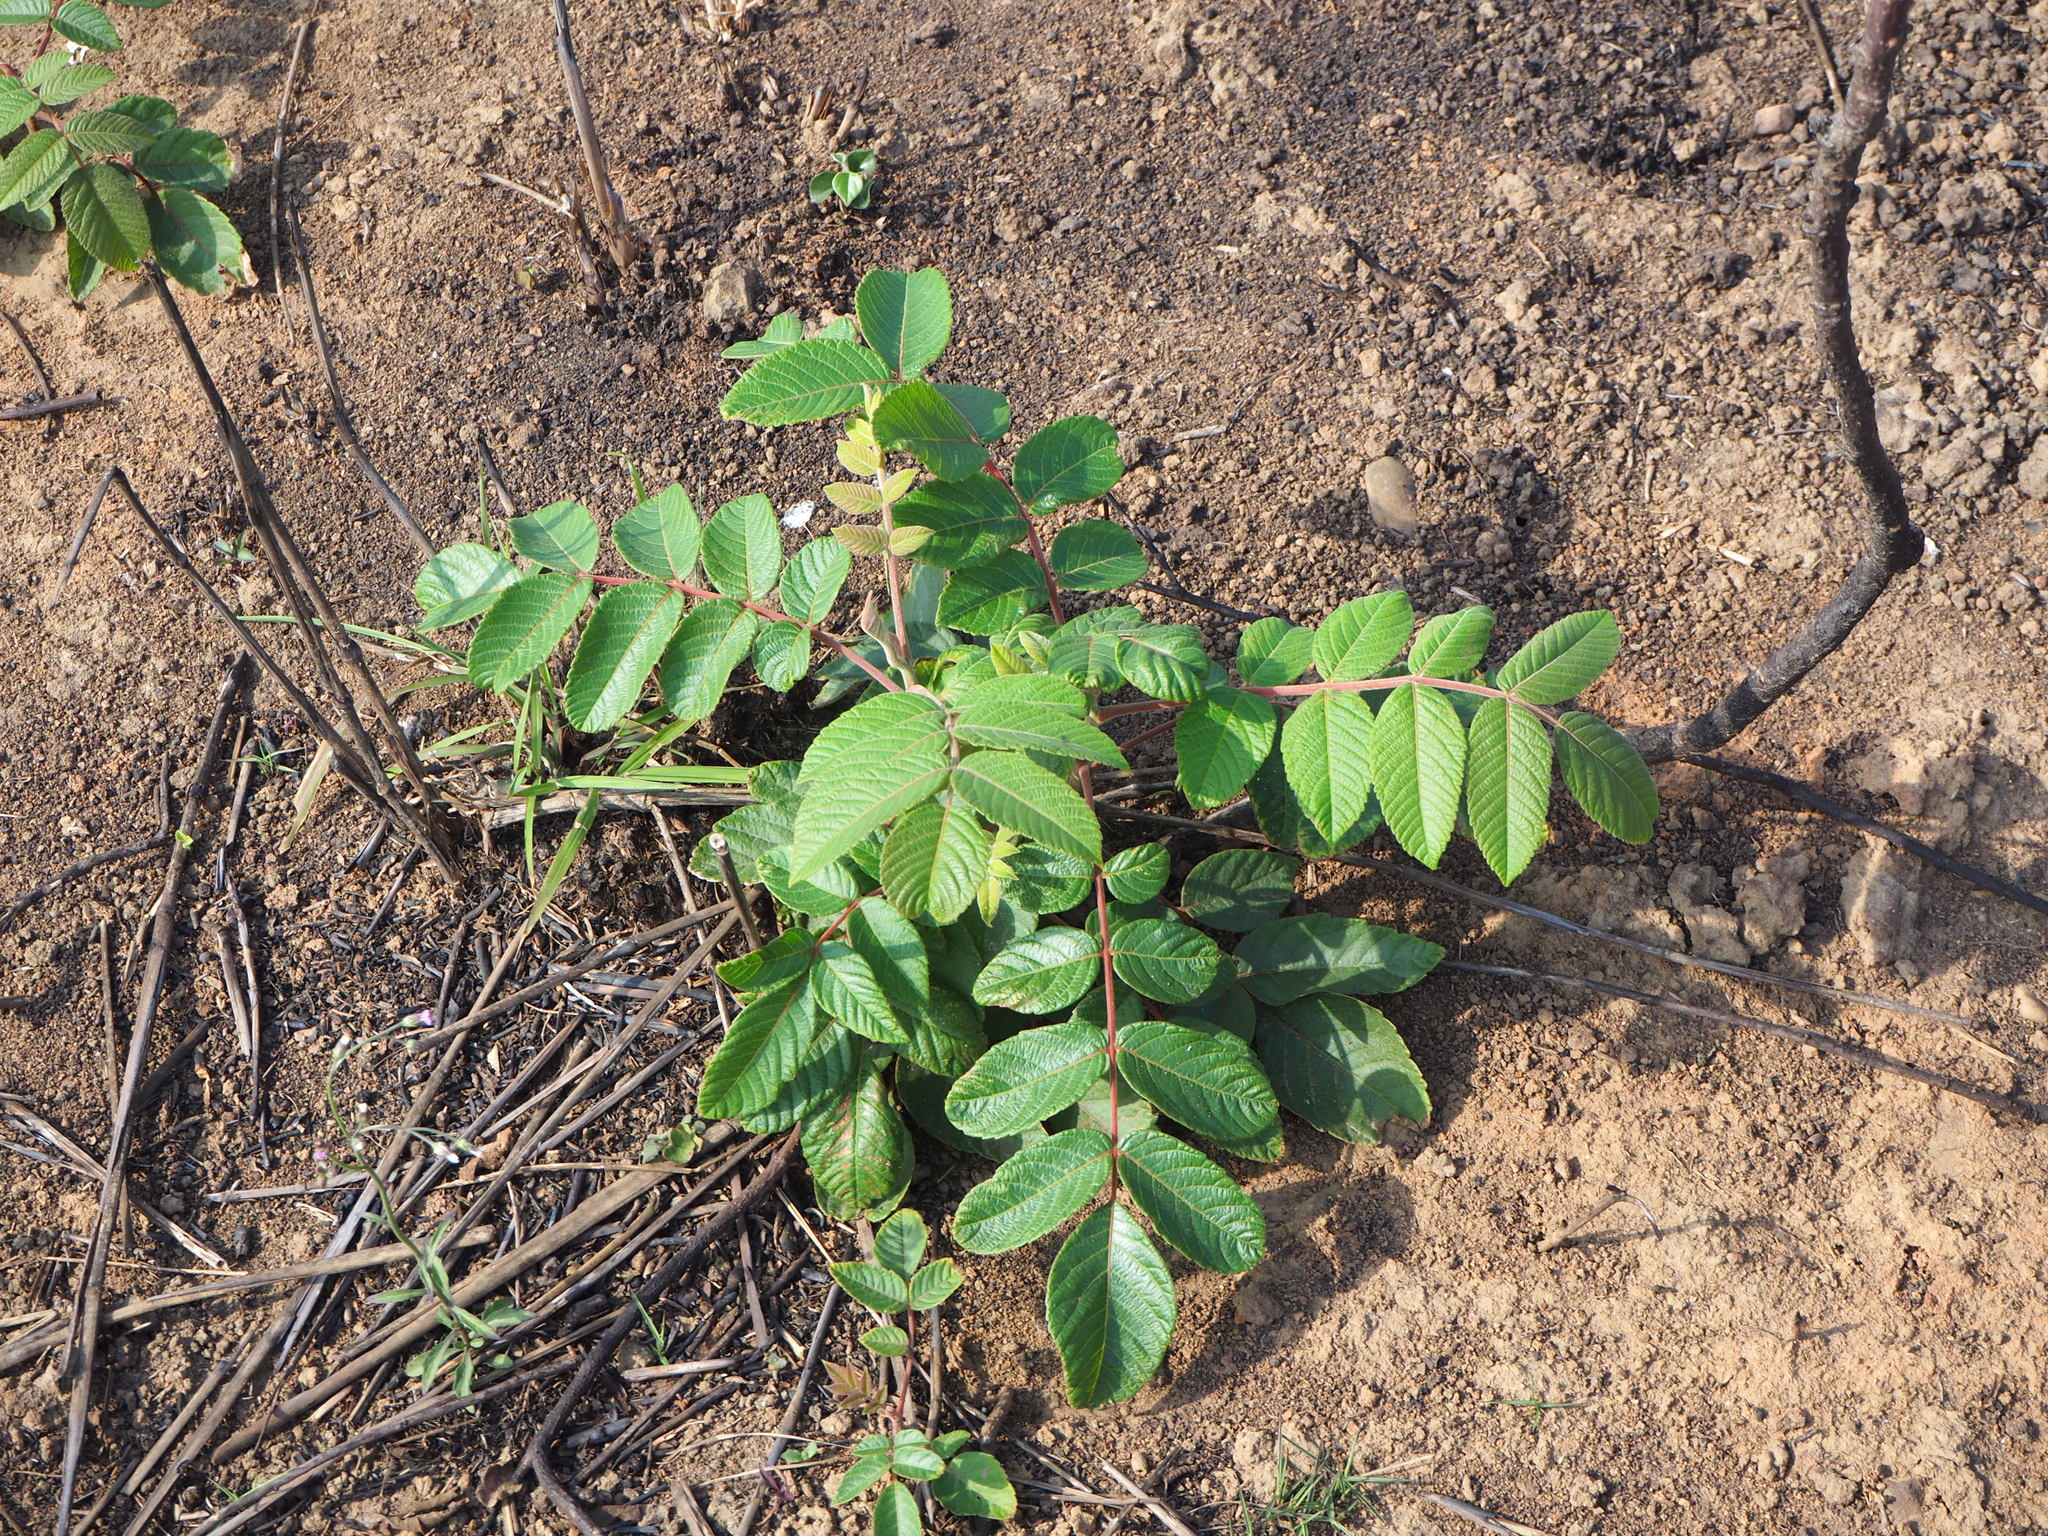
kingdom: Plantae
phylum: Tracheophyta
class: Magnoliopsida
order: Sapindales
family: Anacardiaceae
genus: Rhus
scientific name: Rhus chinensis
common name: Chinese gall
